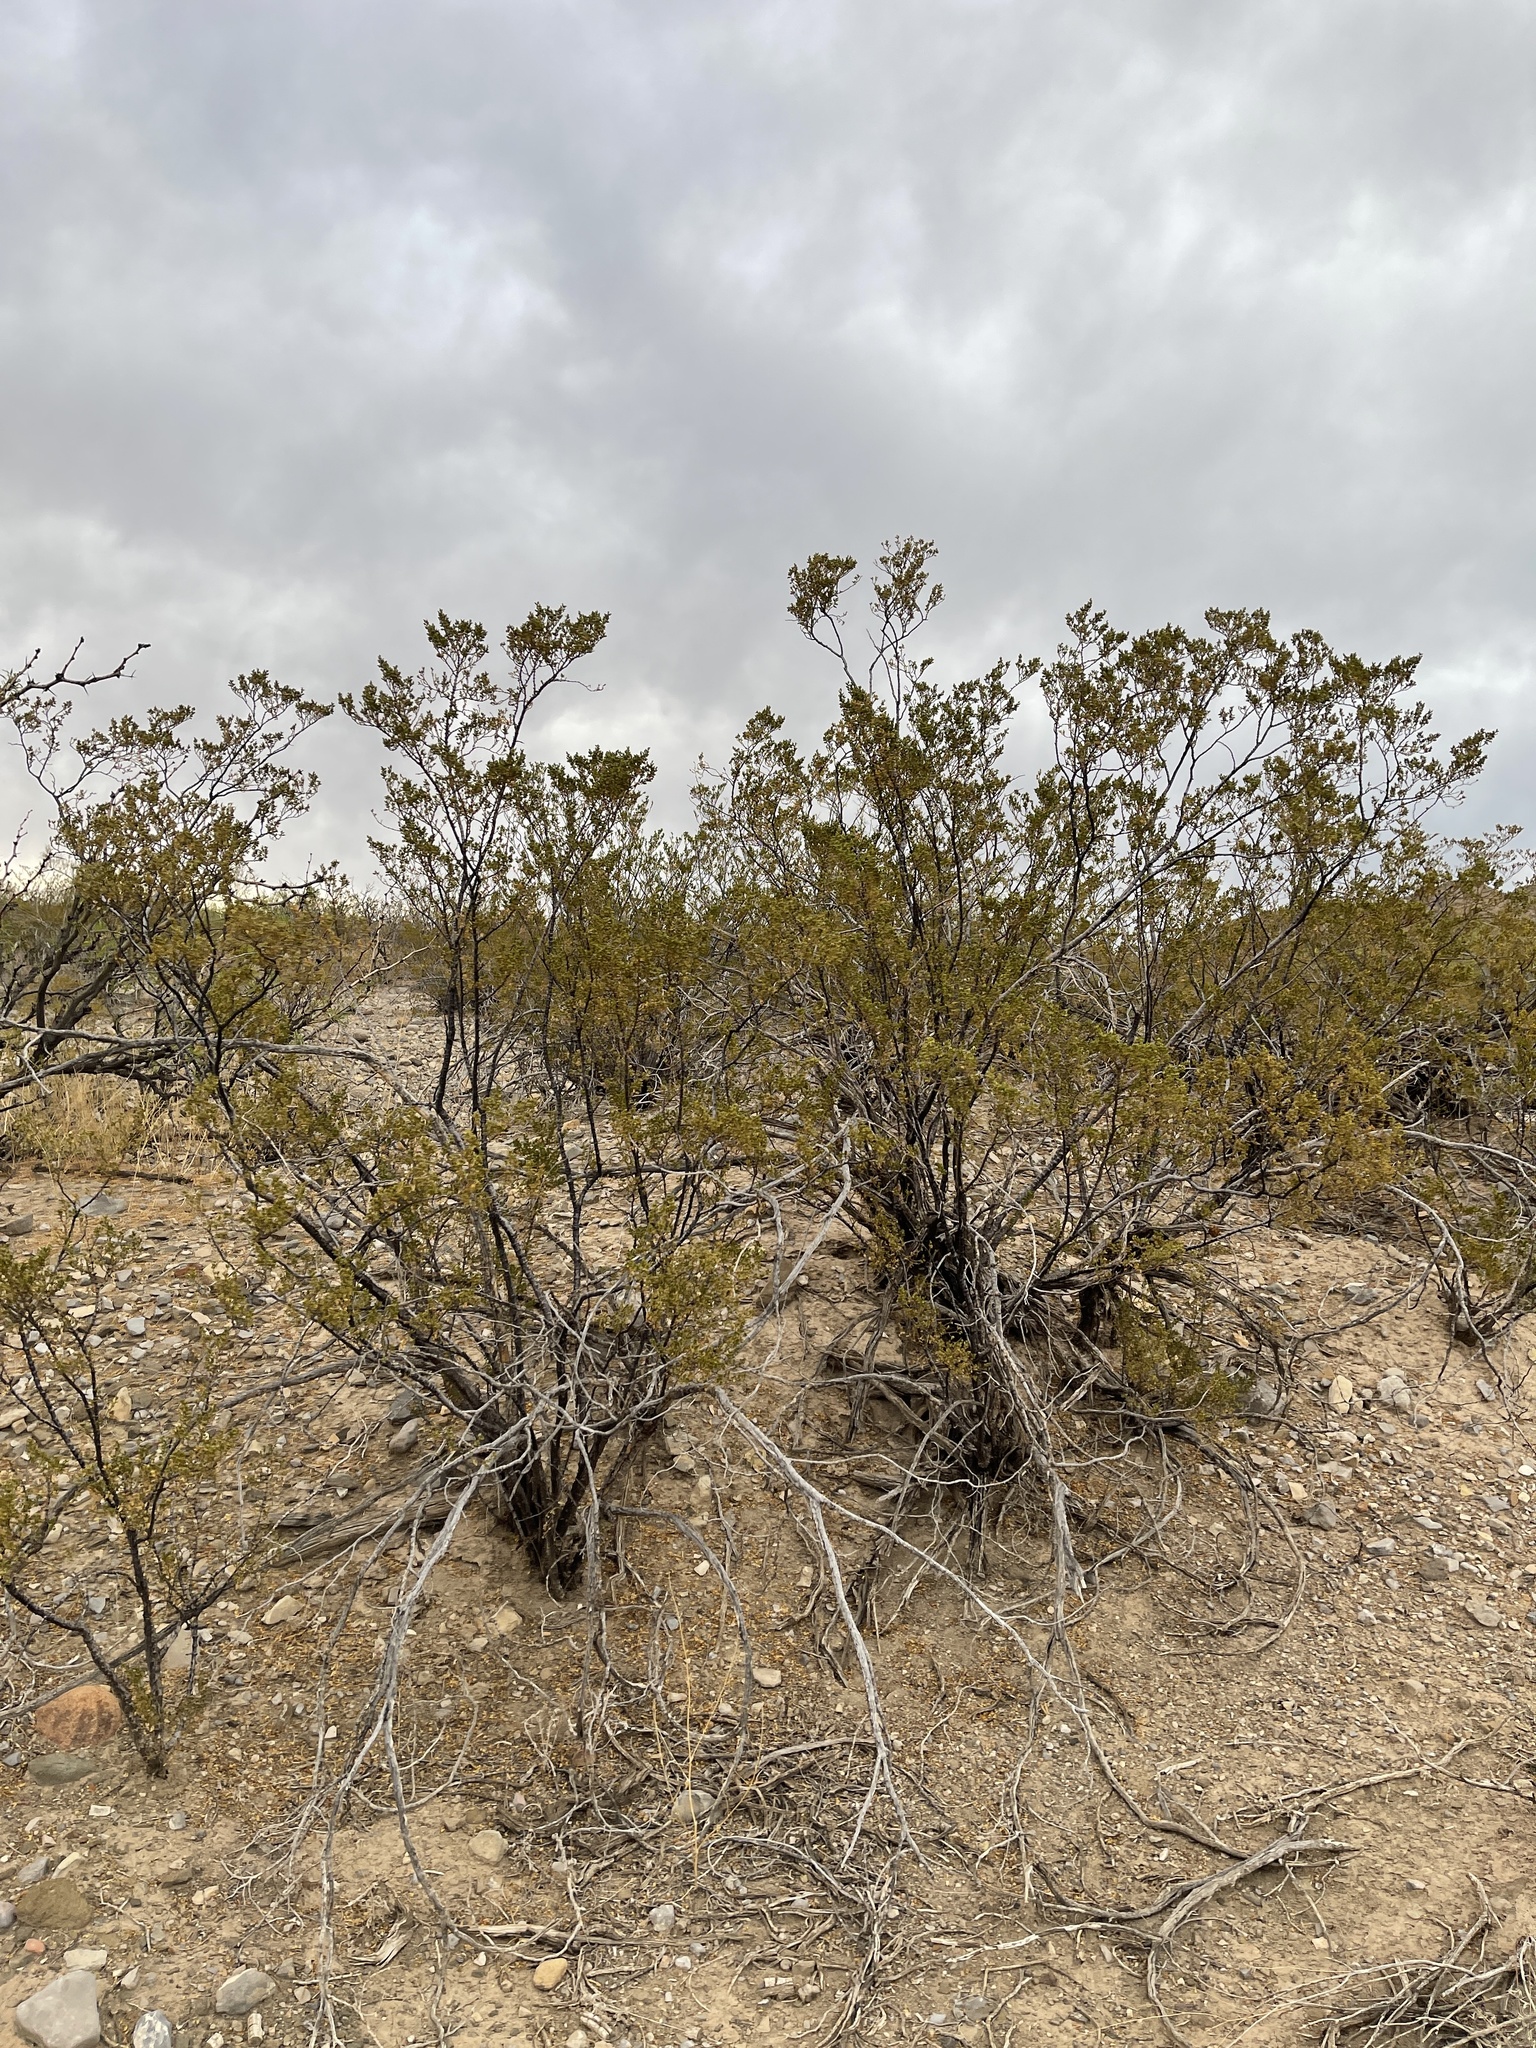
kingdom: Plantae
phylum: Tracheophyta
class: Magnoliopsida
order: Zygophyllales
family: Zygophyllaceae
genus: Larrea
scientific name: Larrea tridentata
